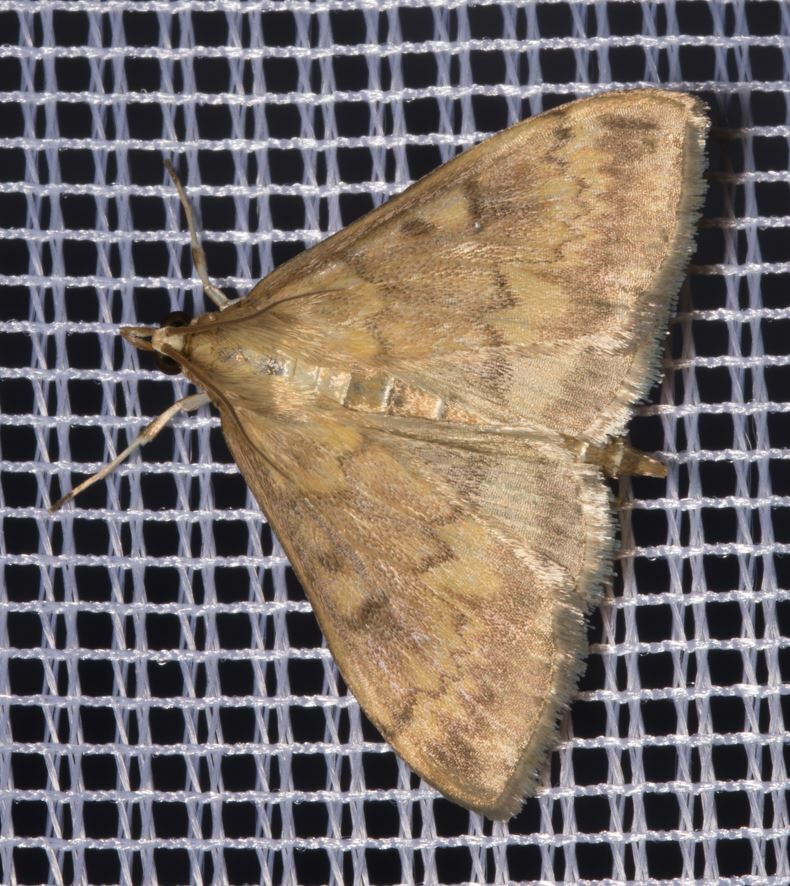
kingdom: Animalia
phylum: Arthropoda
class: Insecta
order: Lepidoptera
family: Crambidae
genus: Ostrinia
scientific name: Ostrinia nubilalis
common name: European corn borer
